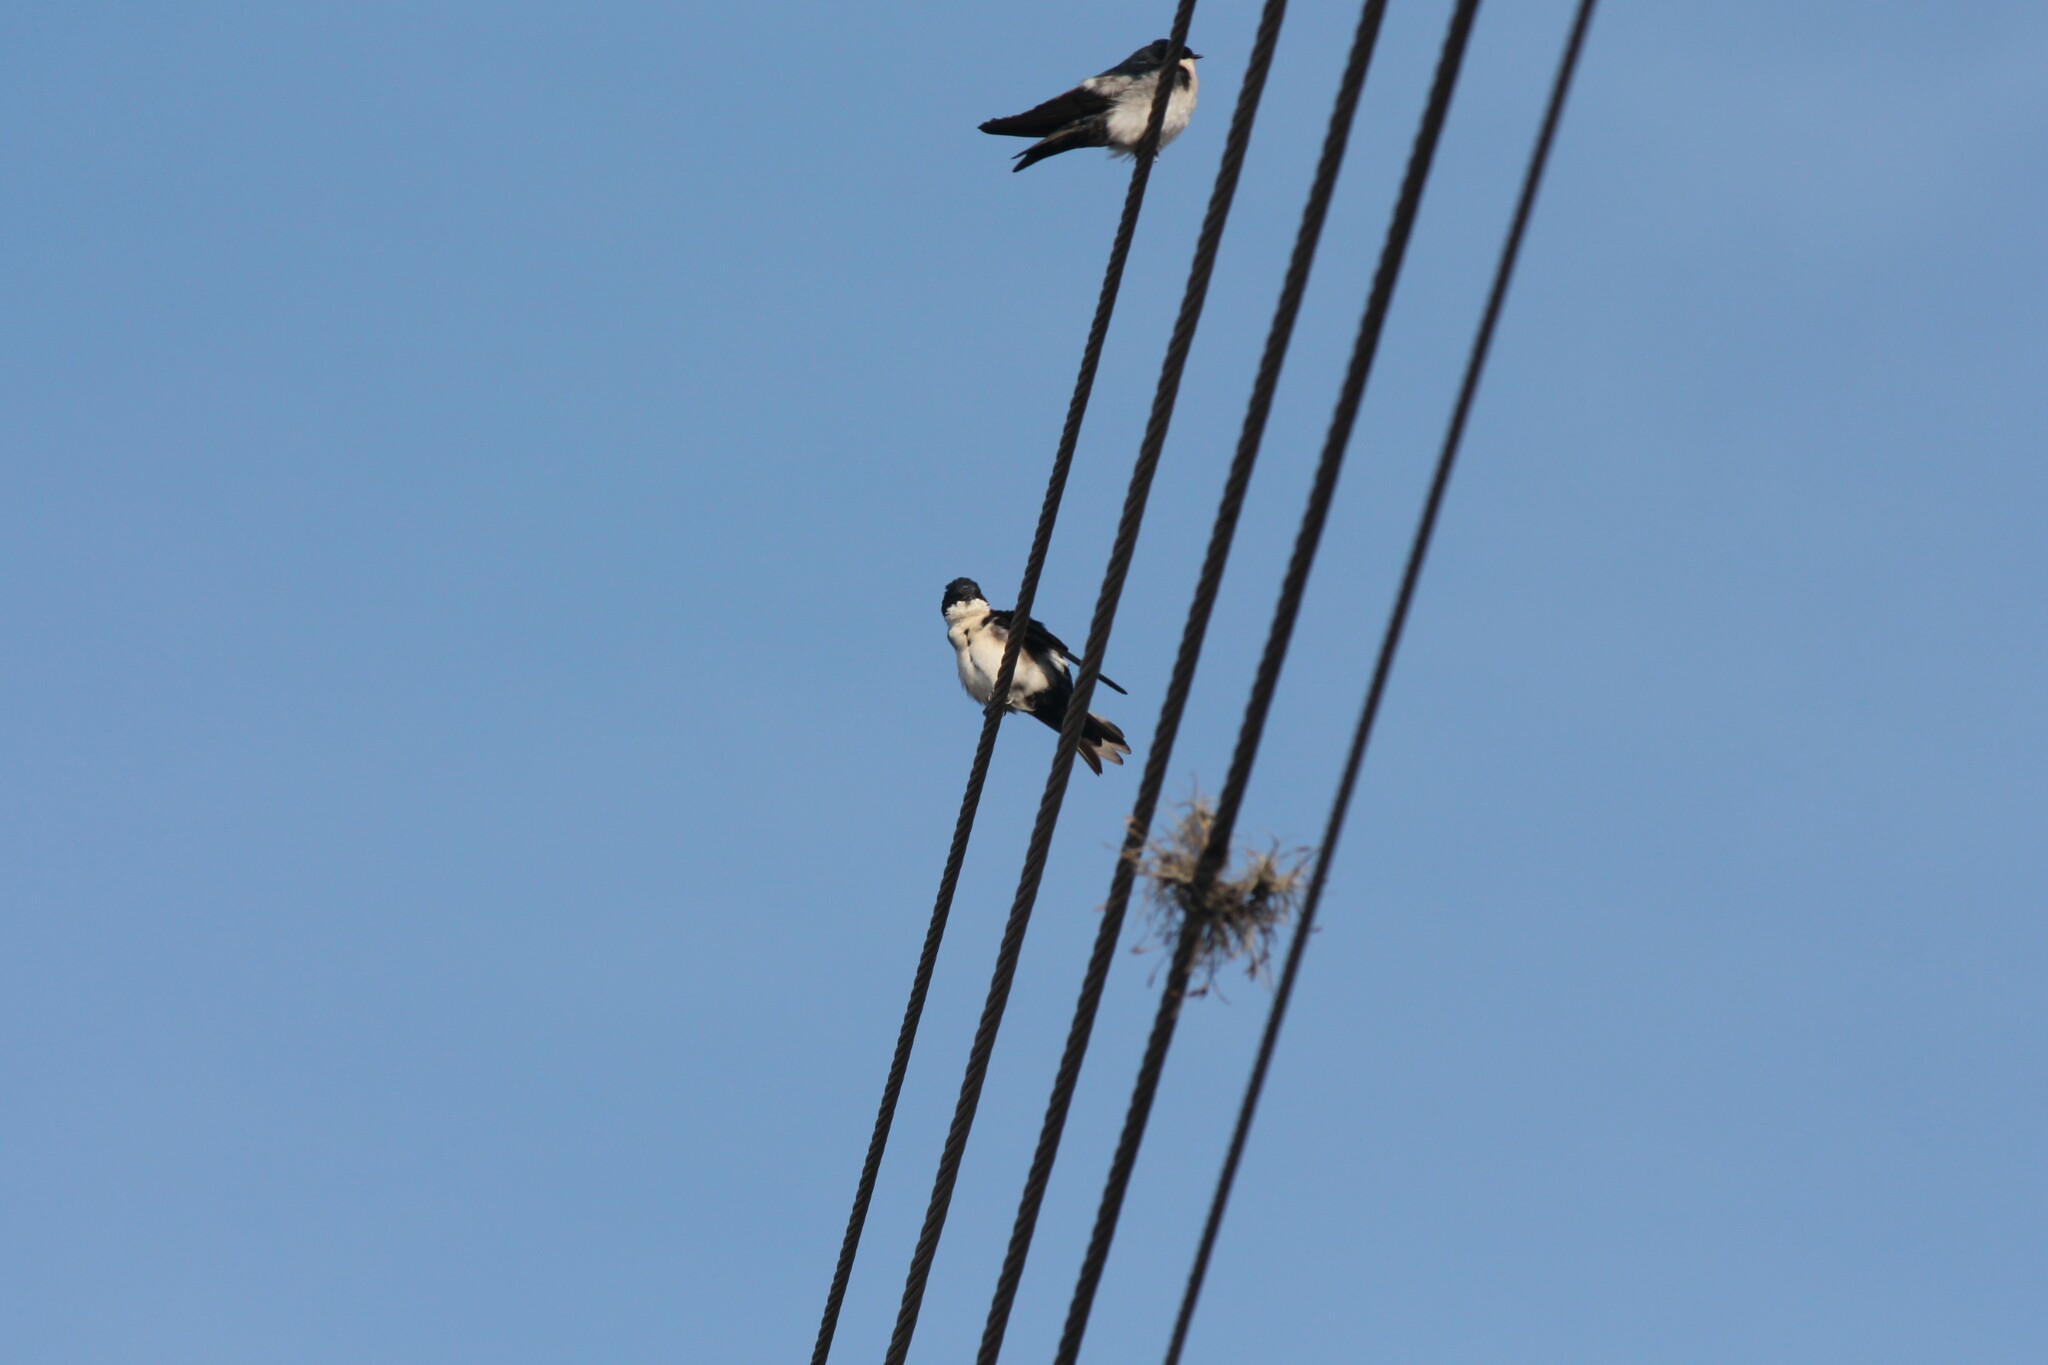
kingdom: Animalia
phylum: Chordata
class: Aves
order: Passeriformes
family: Hirundinidae
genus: Notiochelidon
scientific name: Notiochelidon cyanoleuca
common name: Blue-and-white swallow
